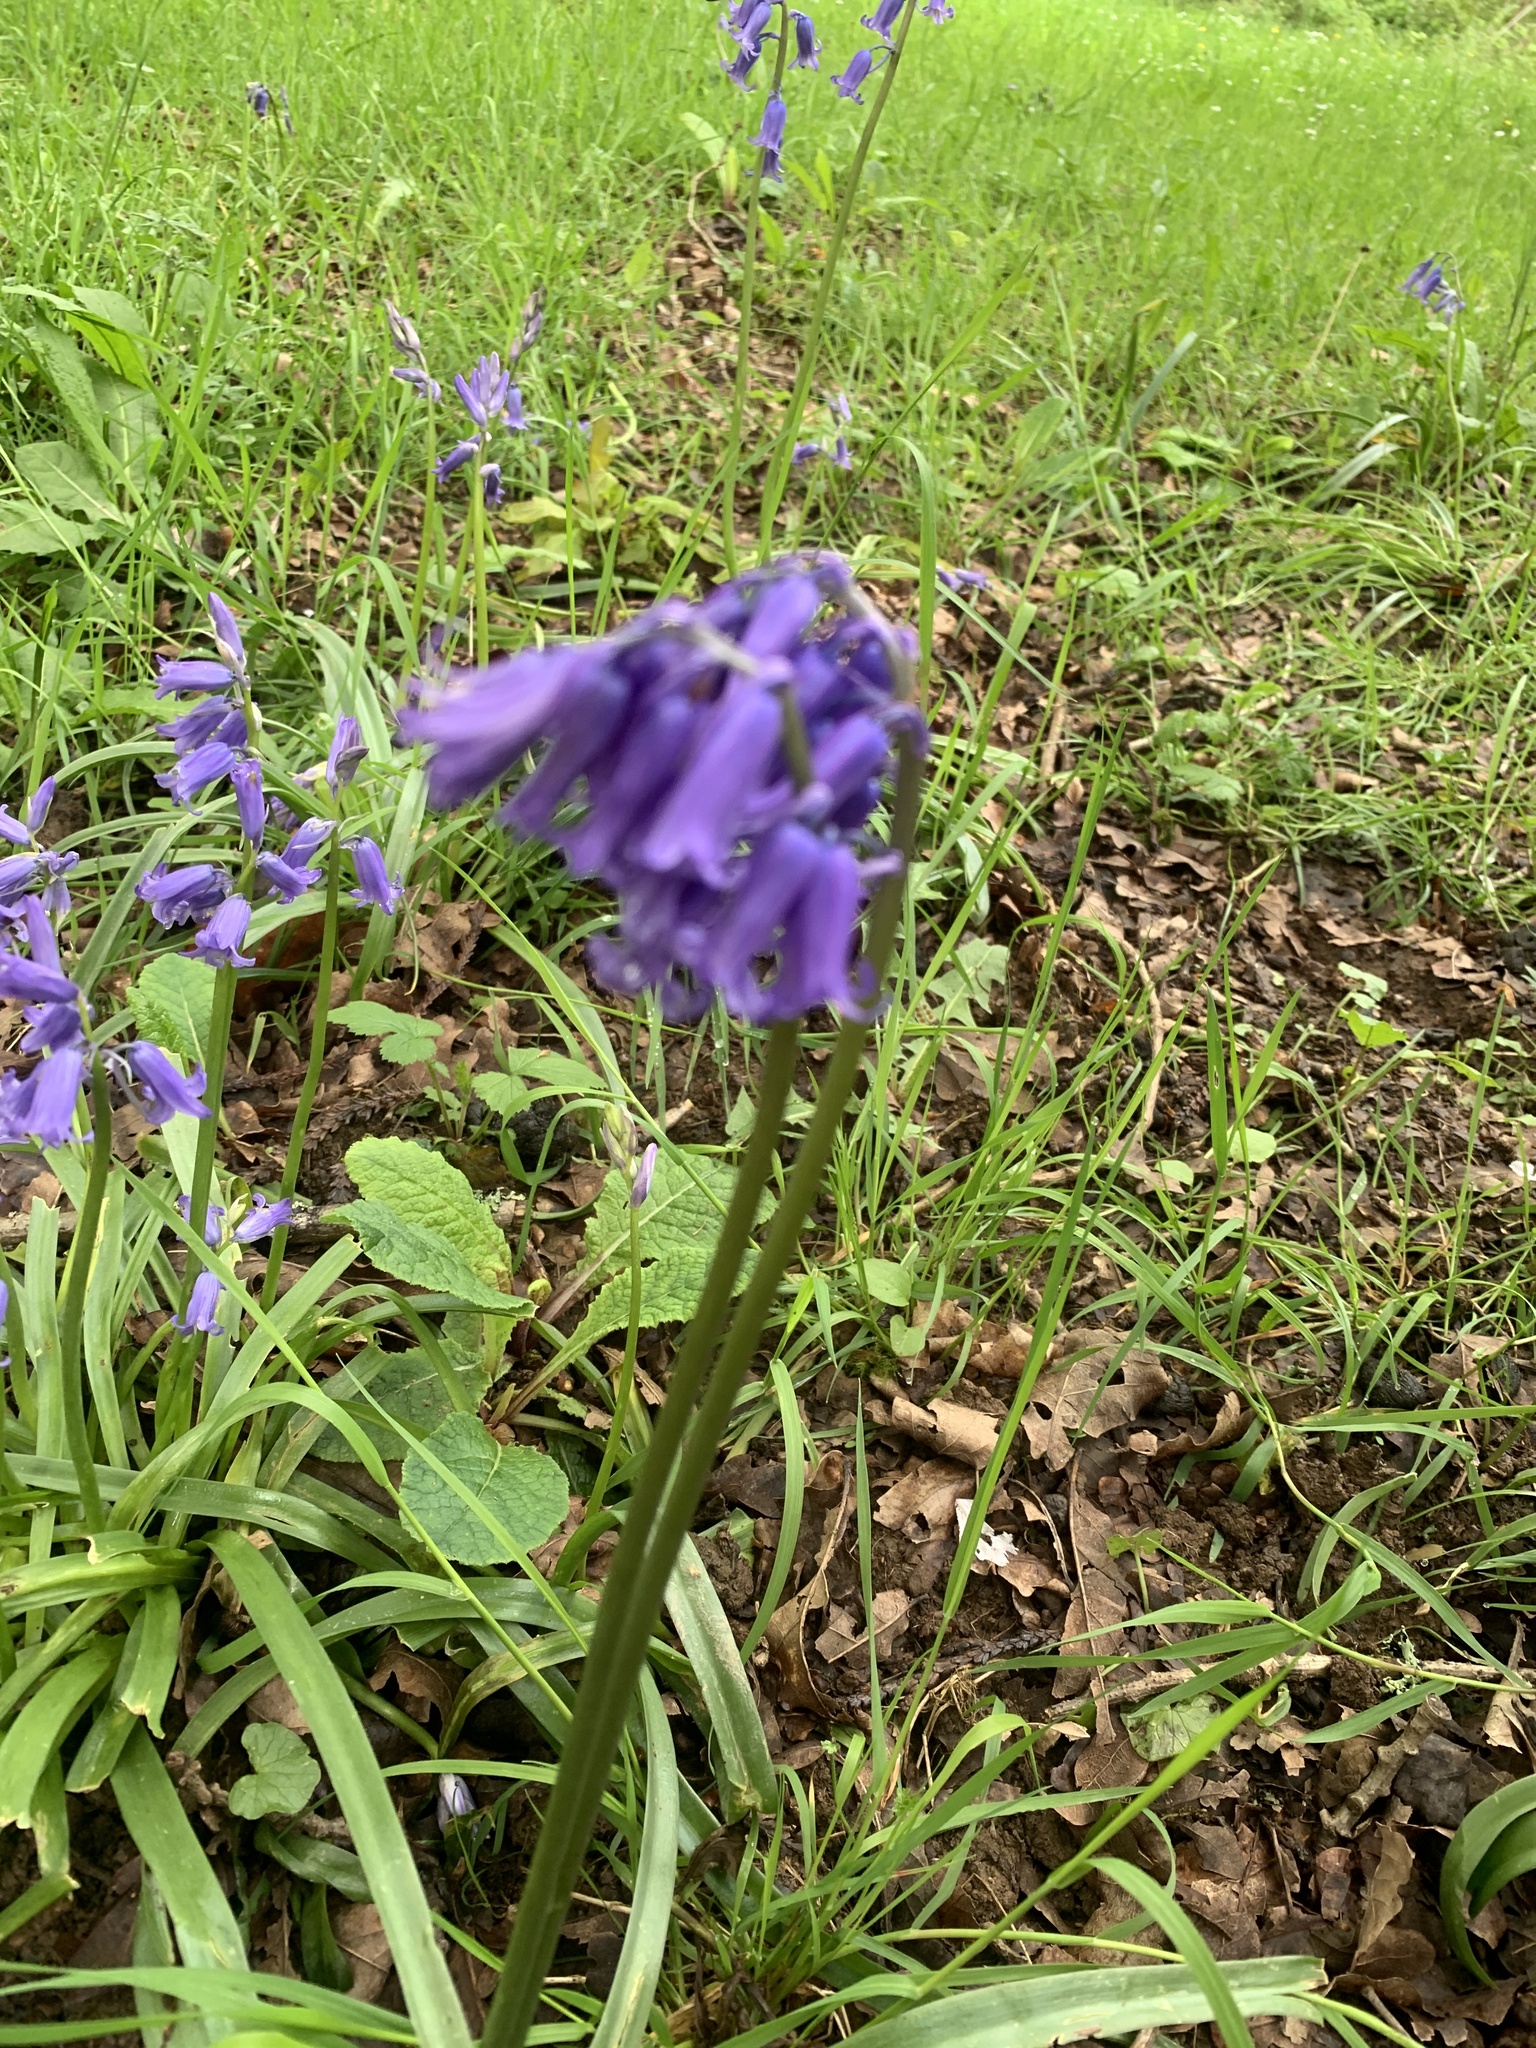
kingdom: Plantae
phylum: Tracheophyta
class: Liliopsida
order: Asparagales
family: Asparagaceae
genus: Hyacinthoides
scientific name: Hyacinthoides non-scripta
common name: Bluebell
